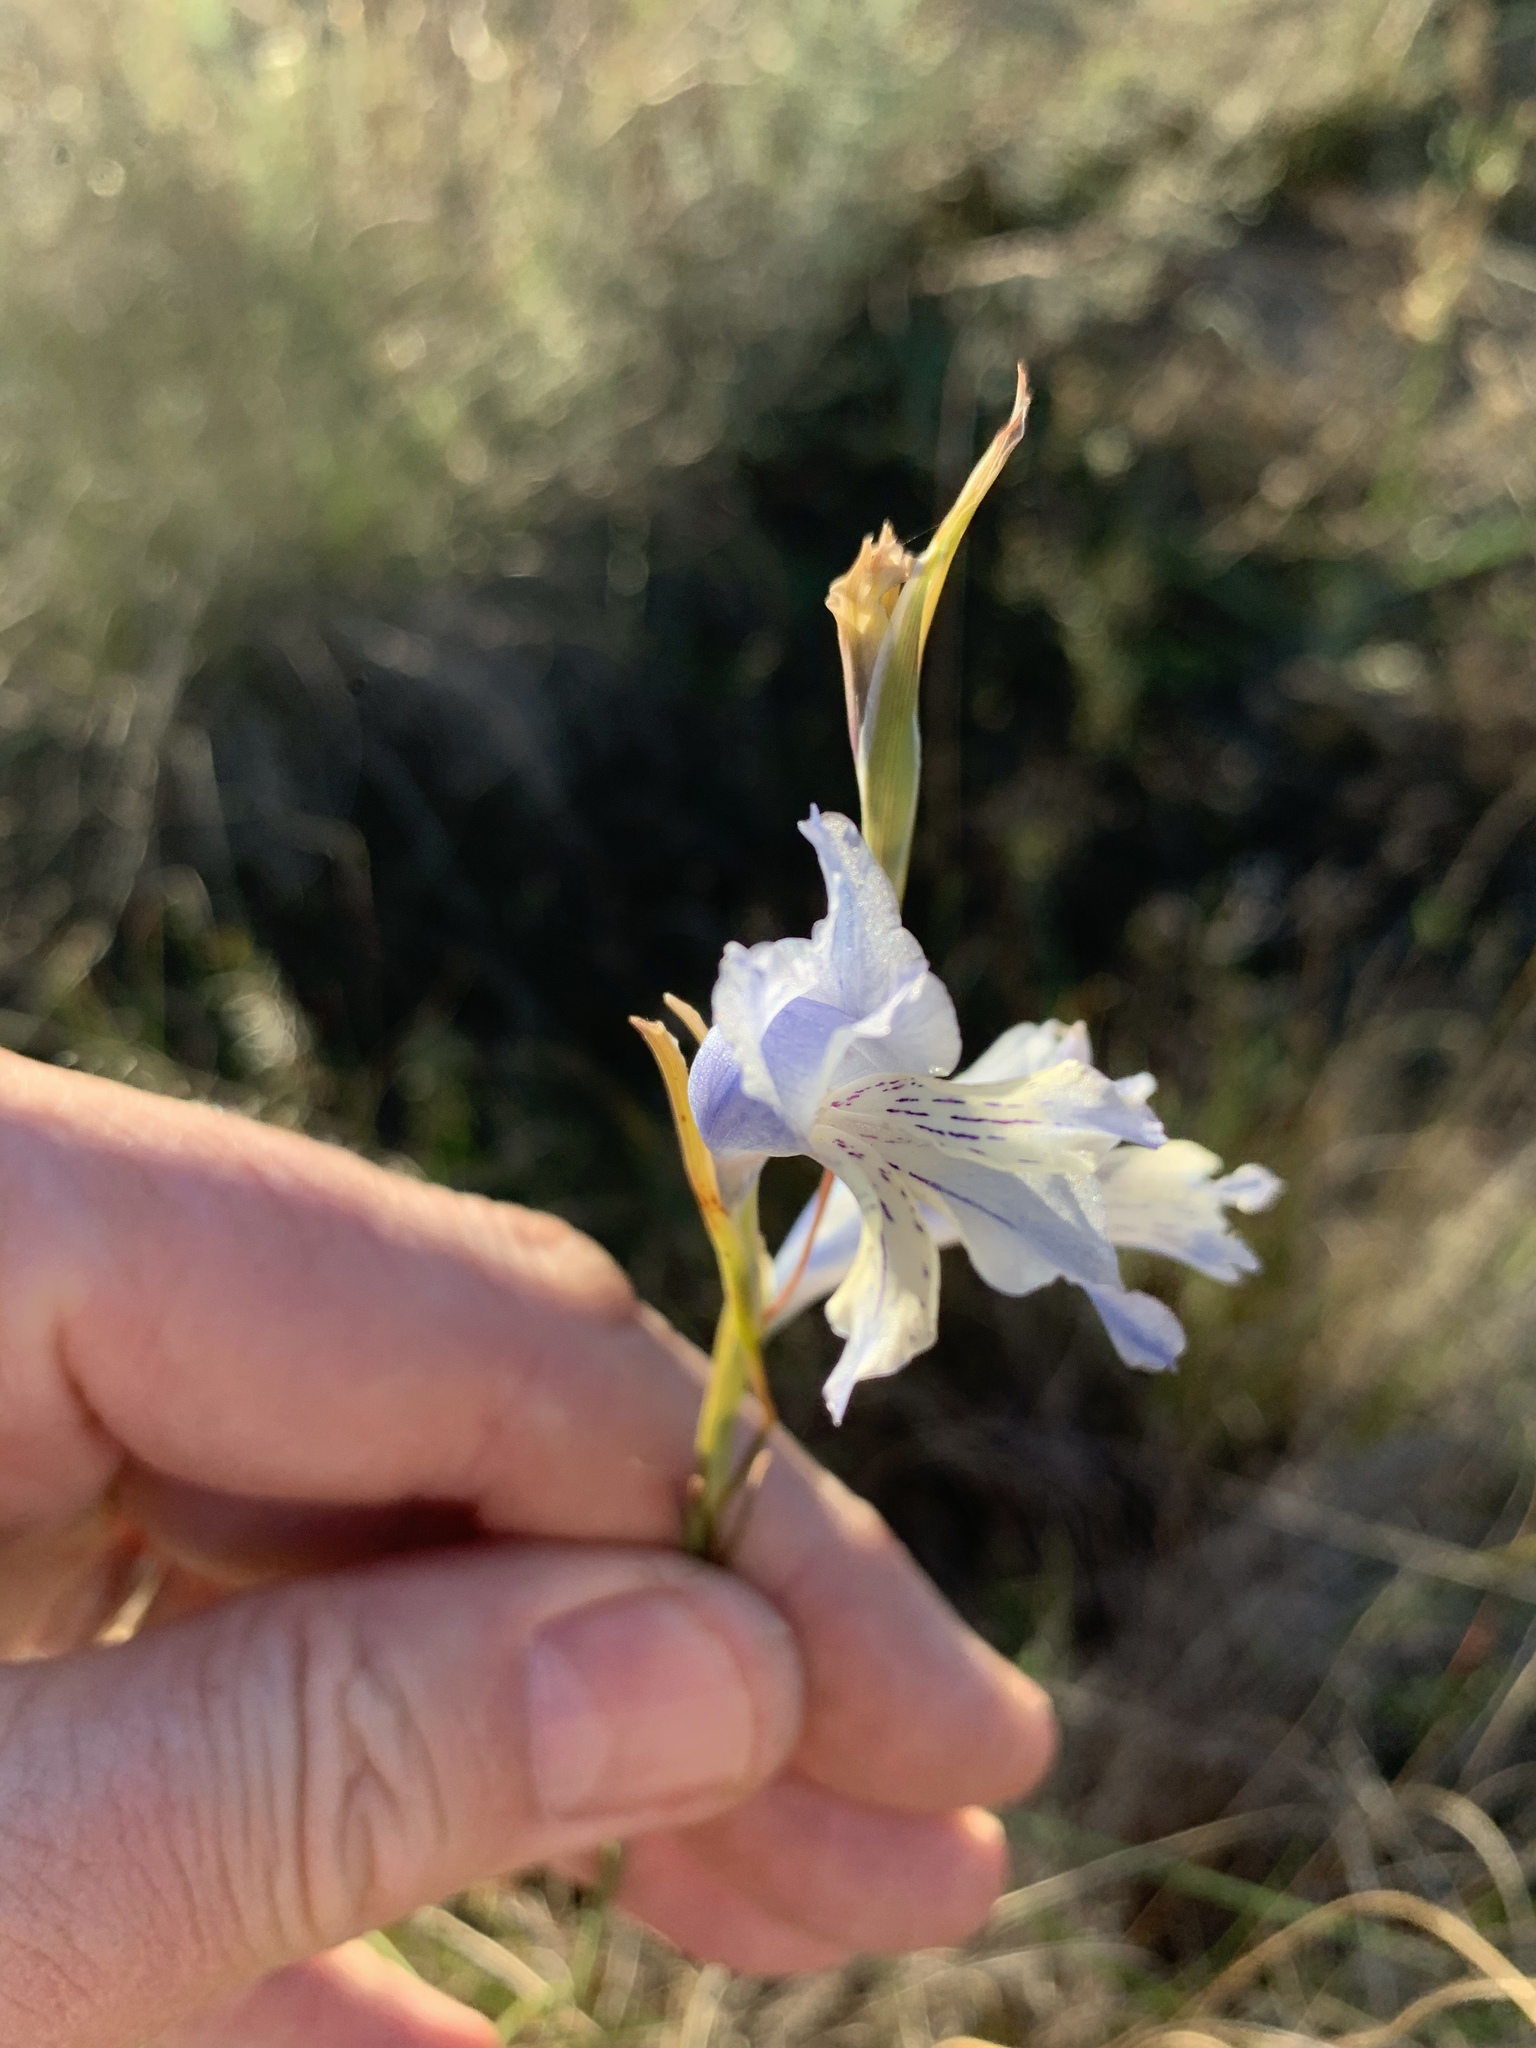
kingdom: Plantae
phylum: Tracheophyta
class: Liliopsida
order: Asparagales
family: Iridaceae
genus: Gladiolus
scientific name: Gladiolus gracilis
